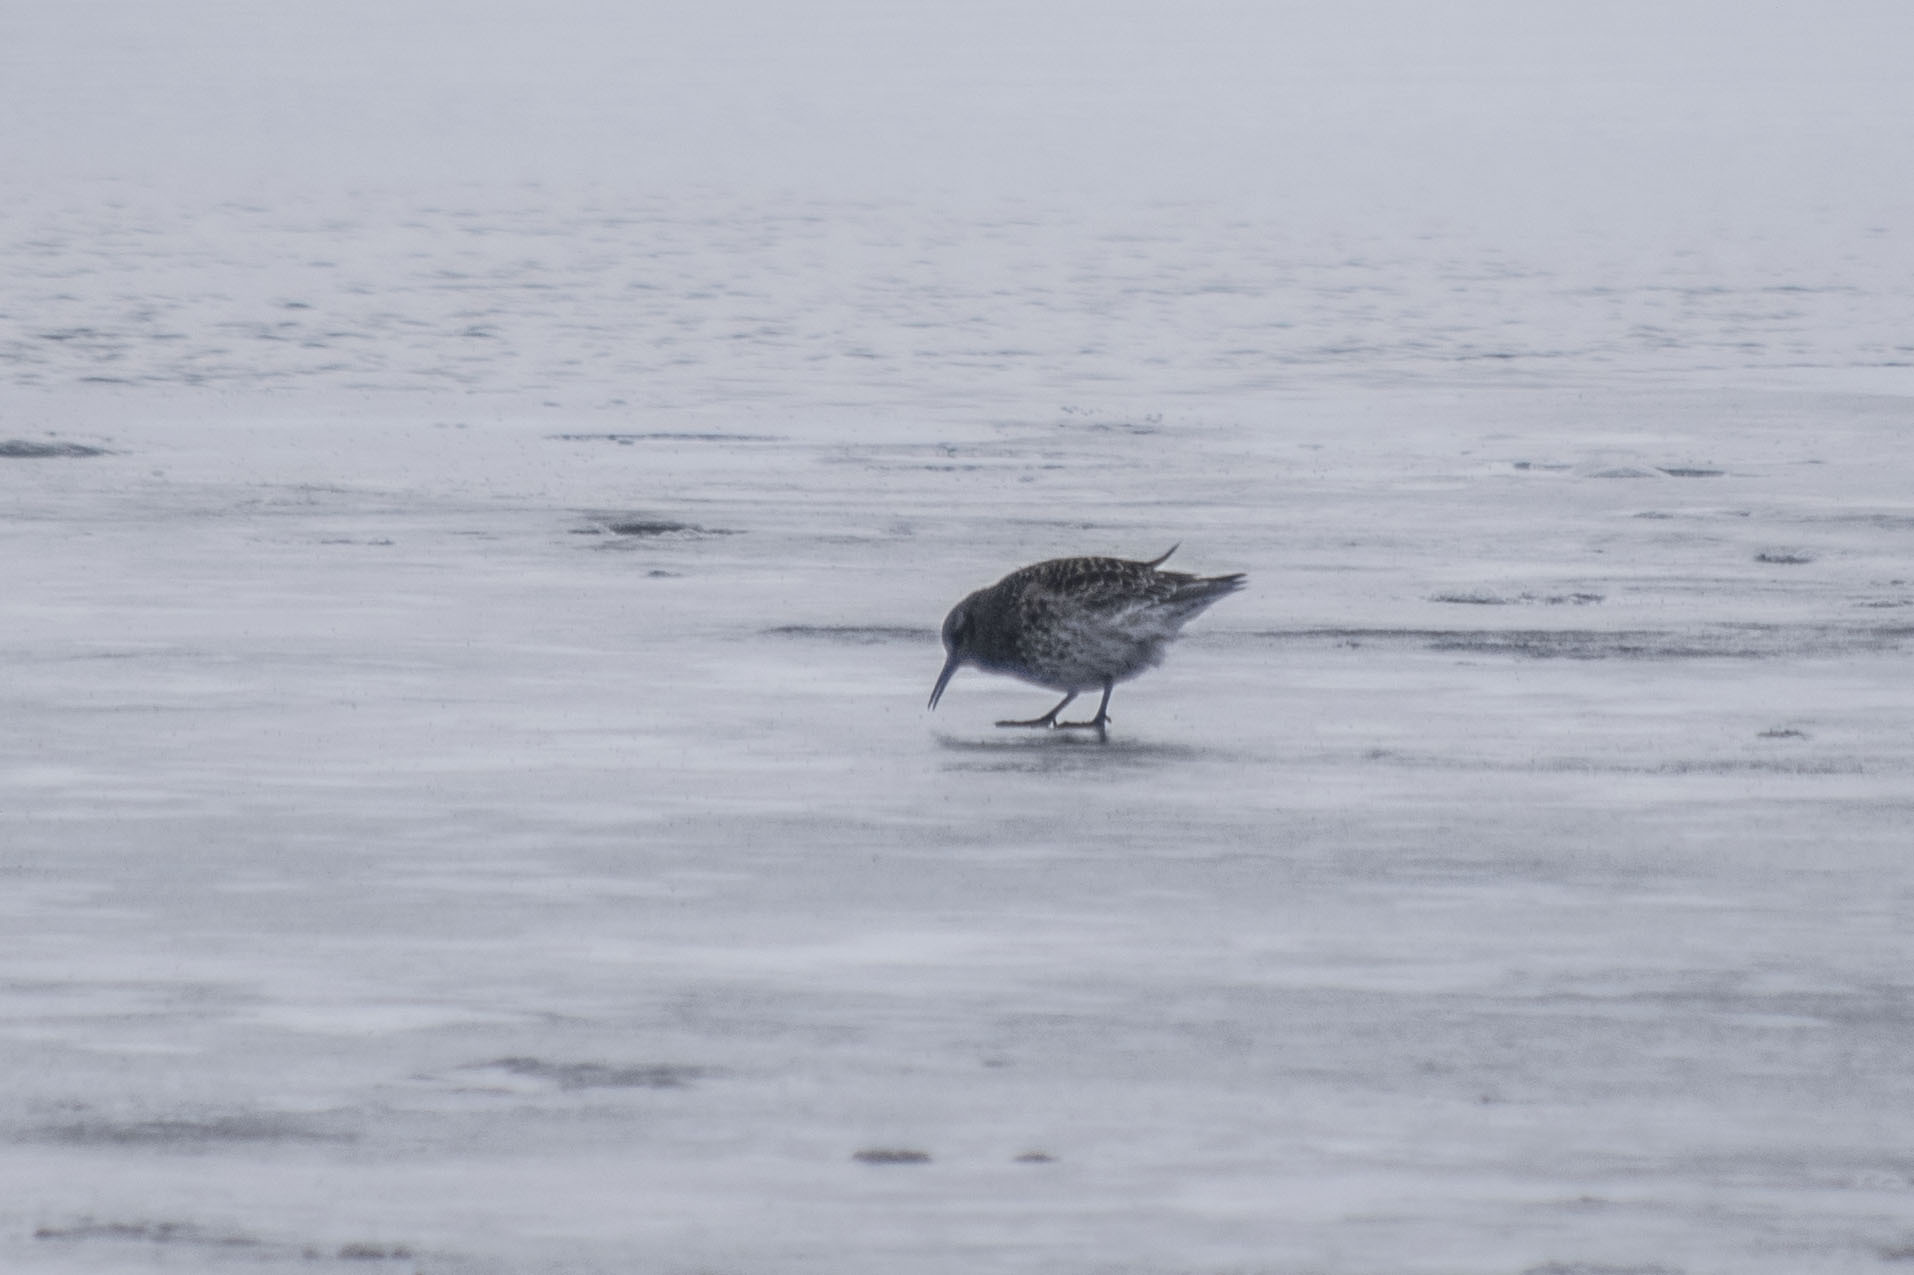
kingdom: Animalia
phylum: Chordata
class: Aves
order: Charadriiformes
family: Scolopacidae
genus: Calidris
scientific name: Calidris maritima
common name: Purple sandpiper
